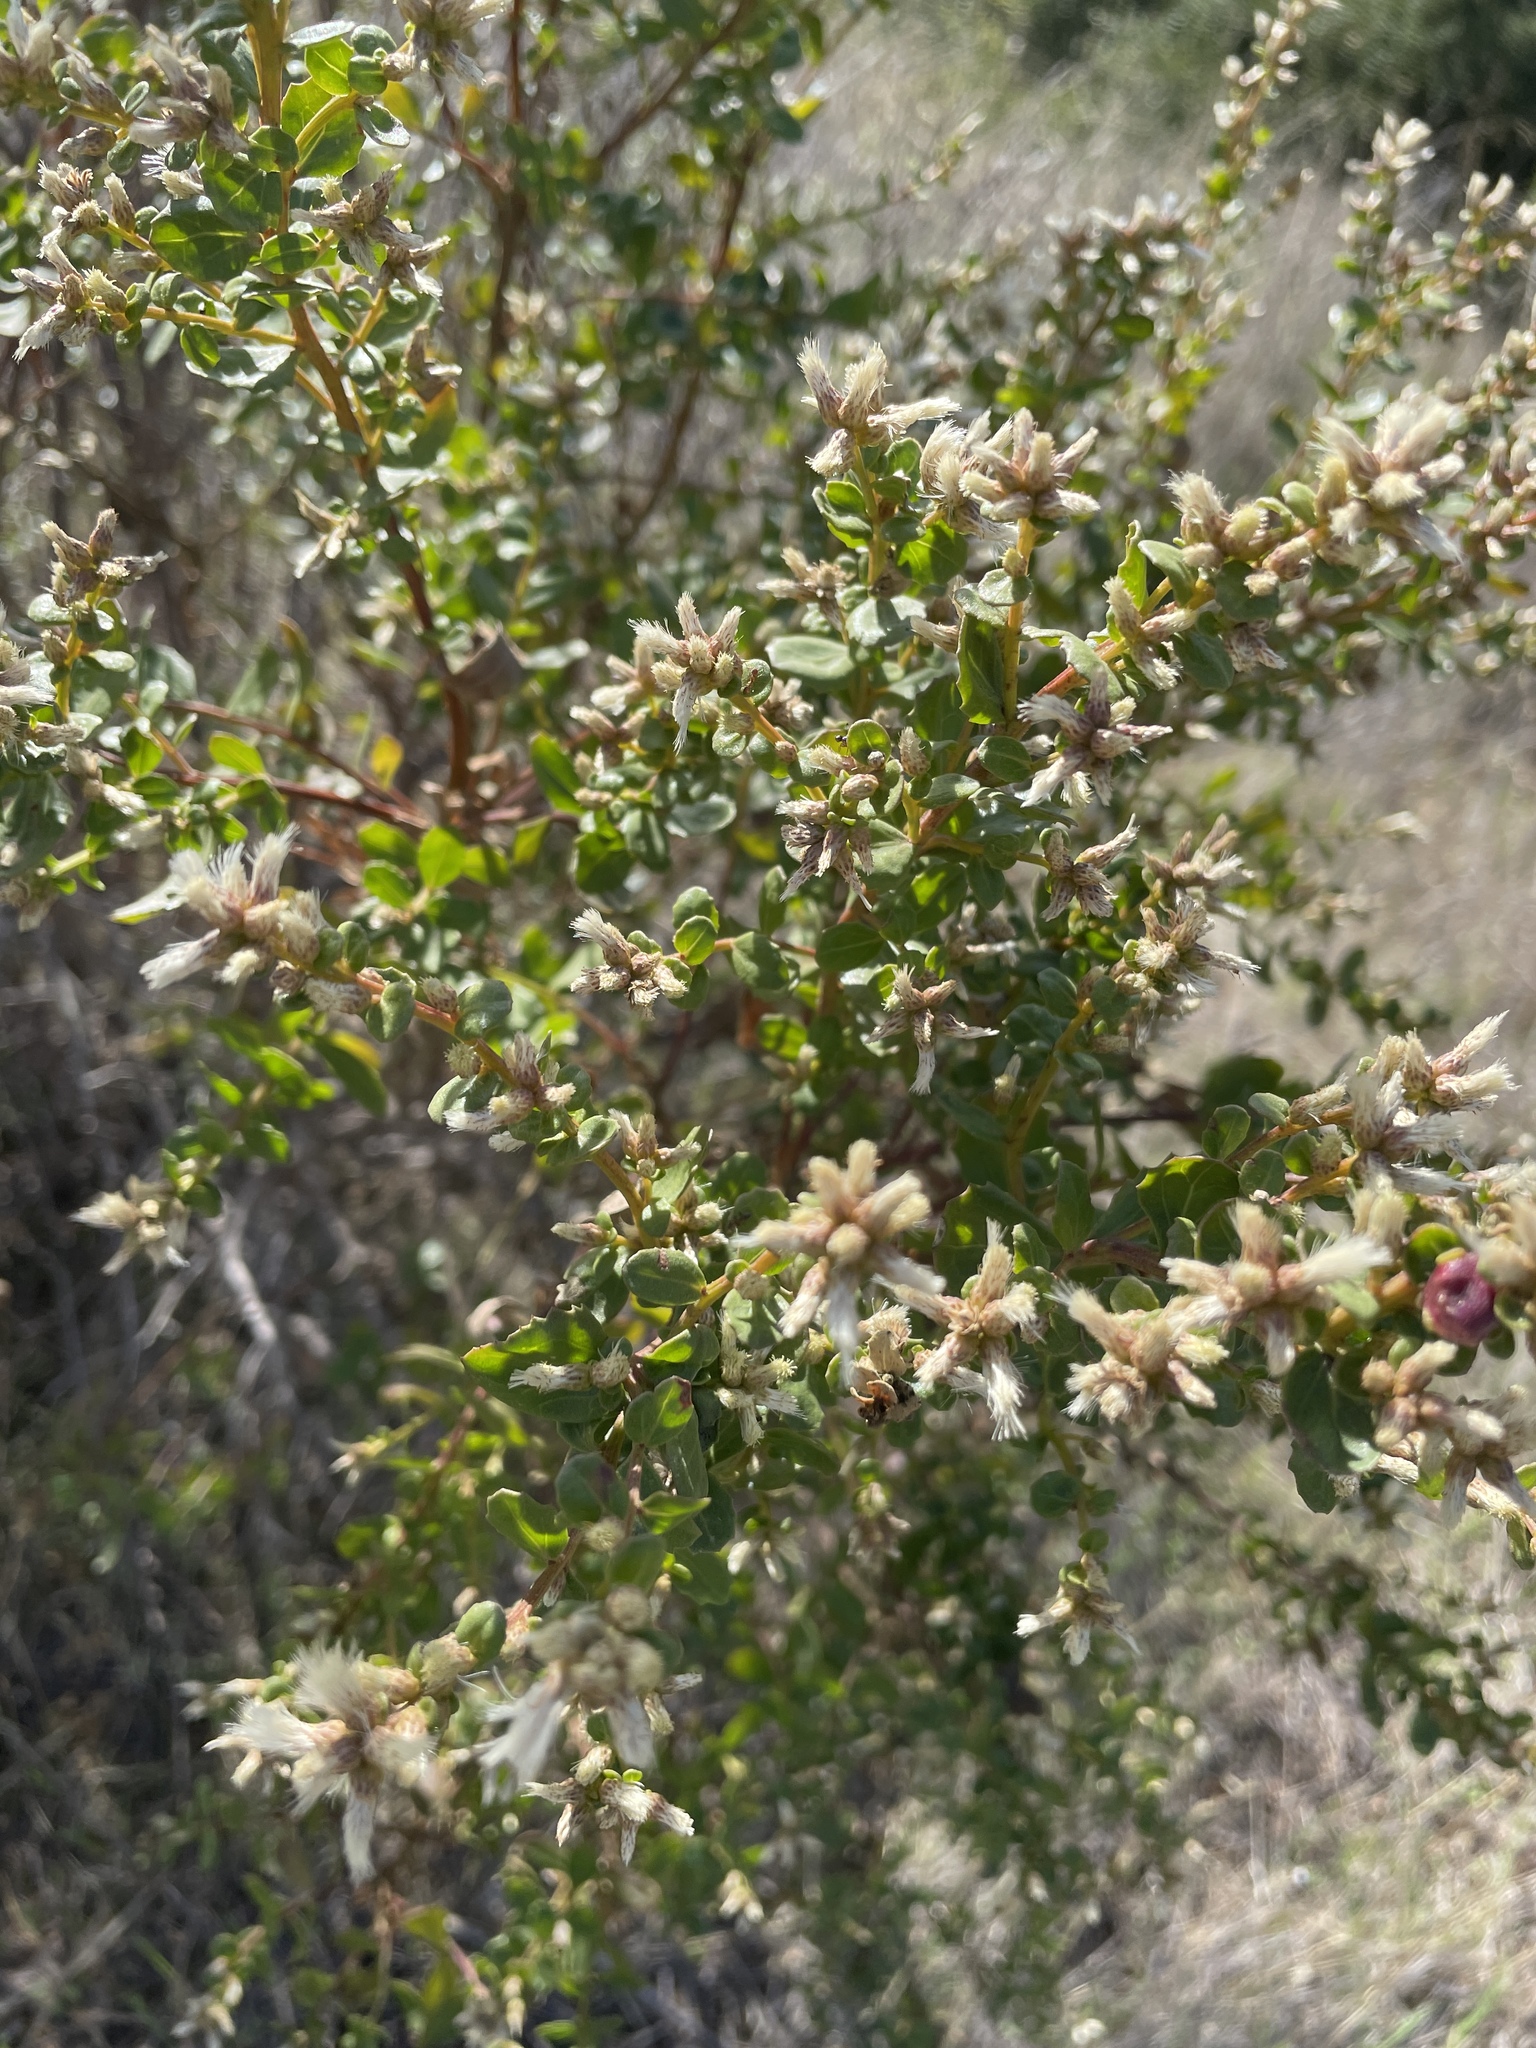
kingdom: Plantae
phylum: Tracheophyta
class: Magnoliopsida
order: Asterales
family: Asteraceae
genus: Baccharis
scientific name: Baccharis pilularis
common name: Coyotebrush
